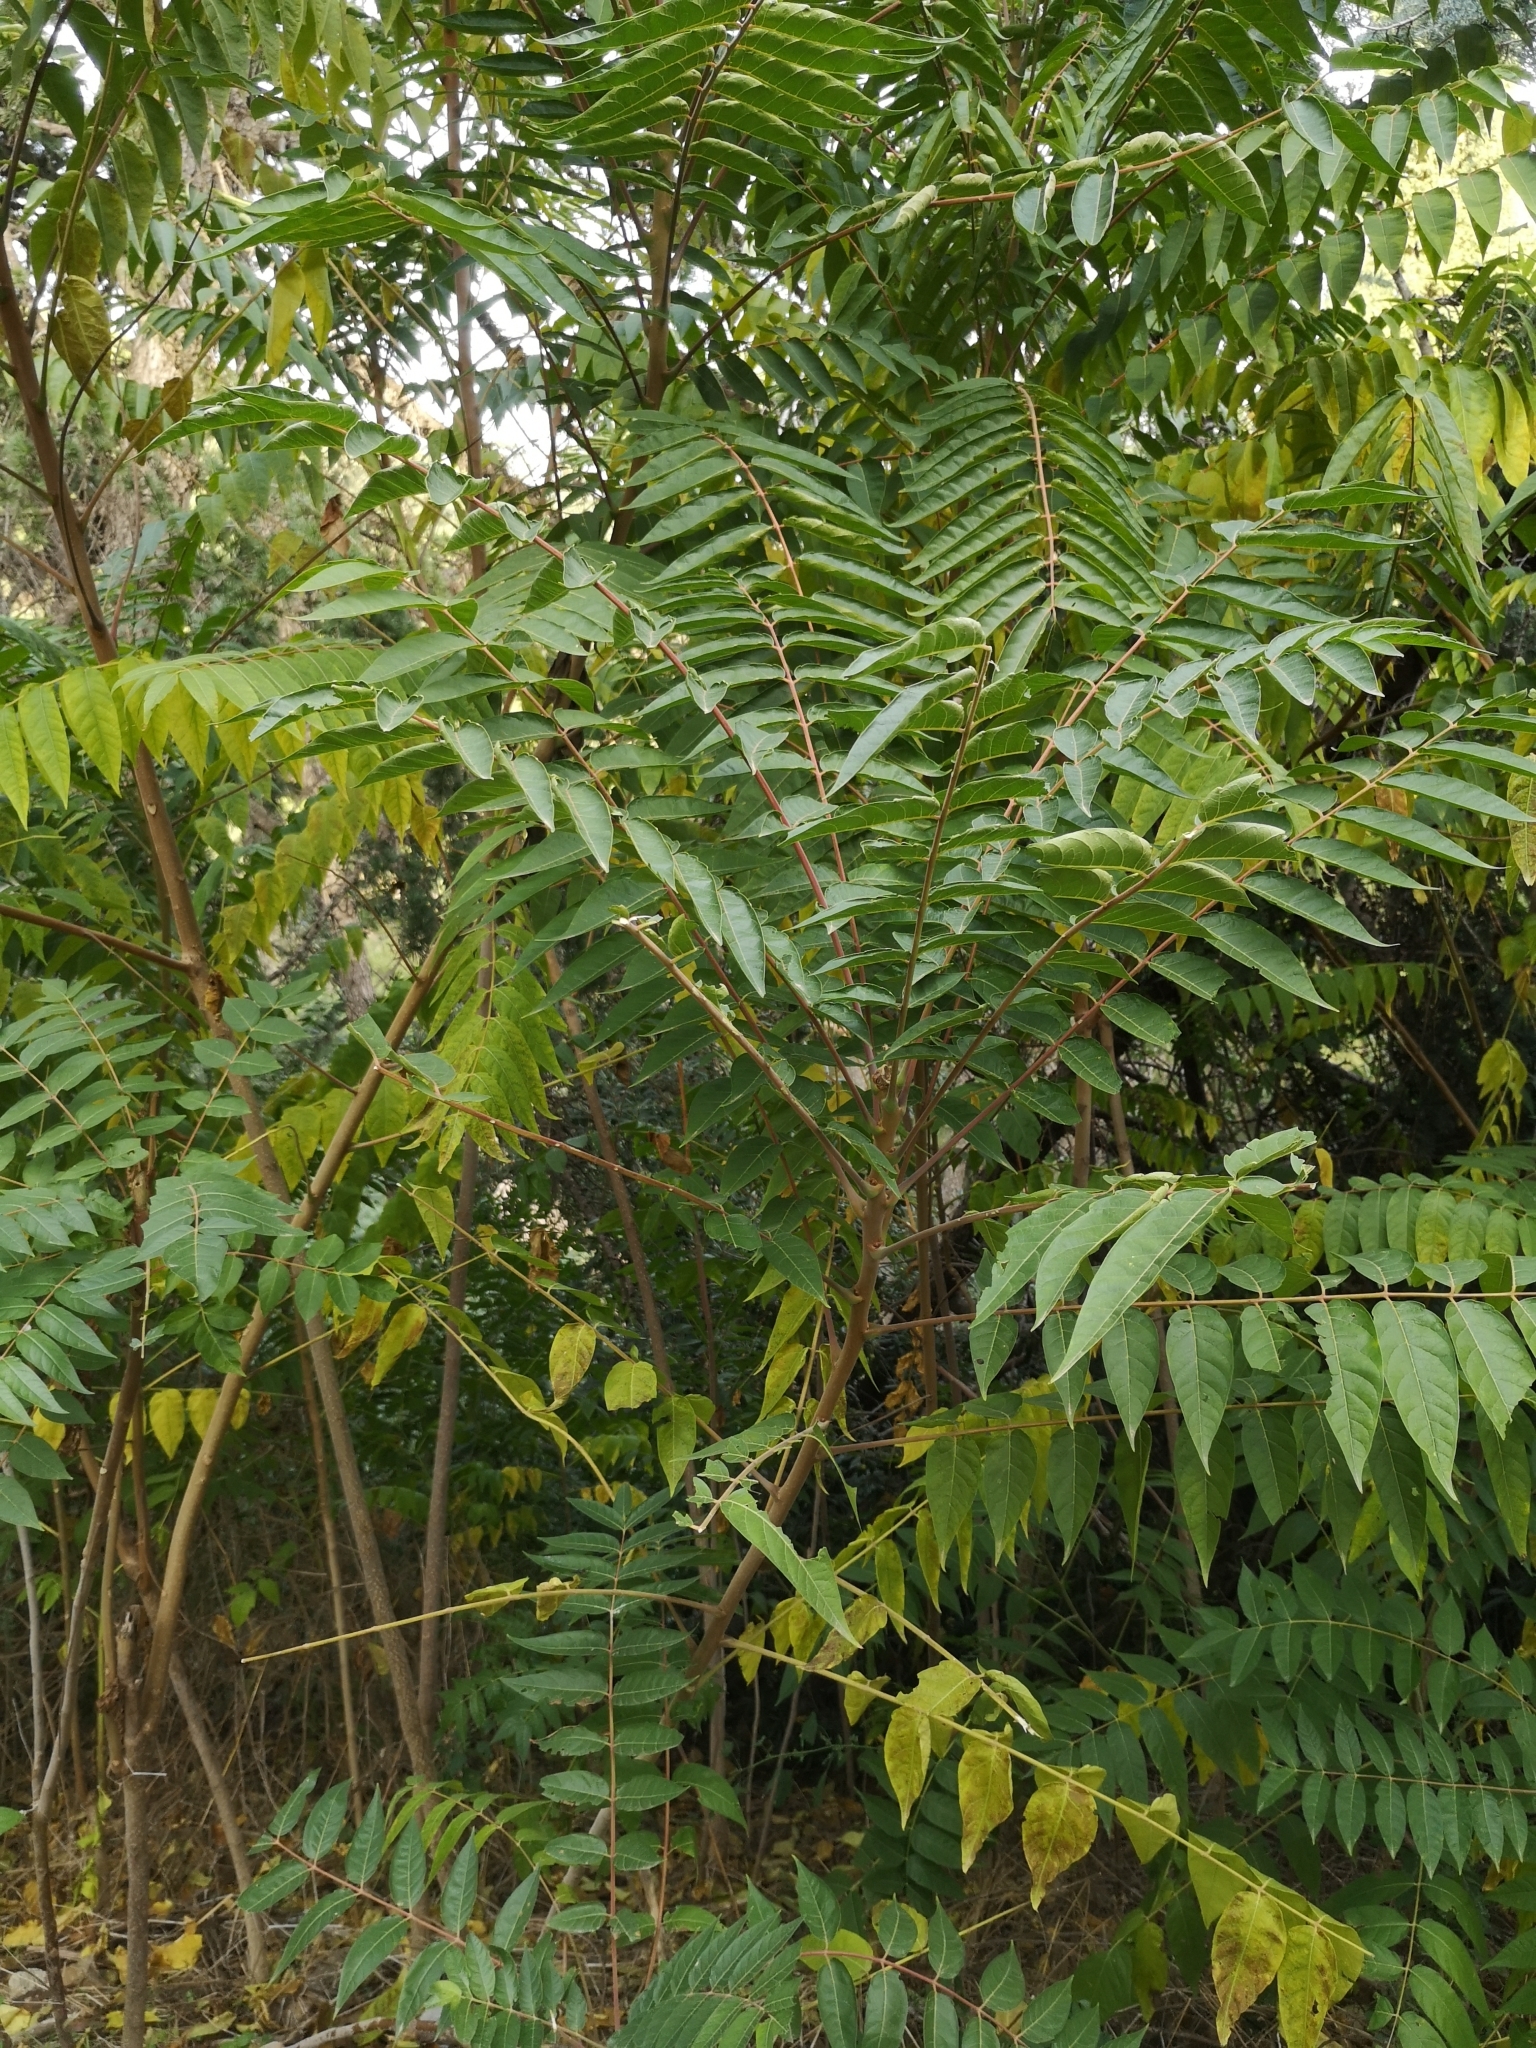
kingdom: Plantae
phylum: Tracheophyta
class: Magnoliopsida
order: Sapindales
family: Simaroubaceae
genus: Ailanthus
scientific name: Ailanthus altissima
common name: Tree-of-heaven
